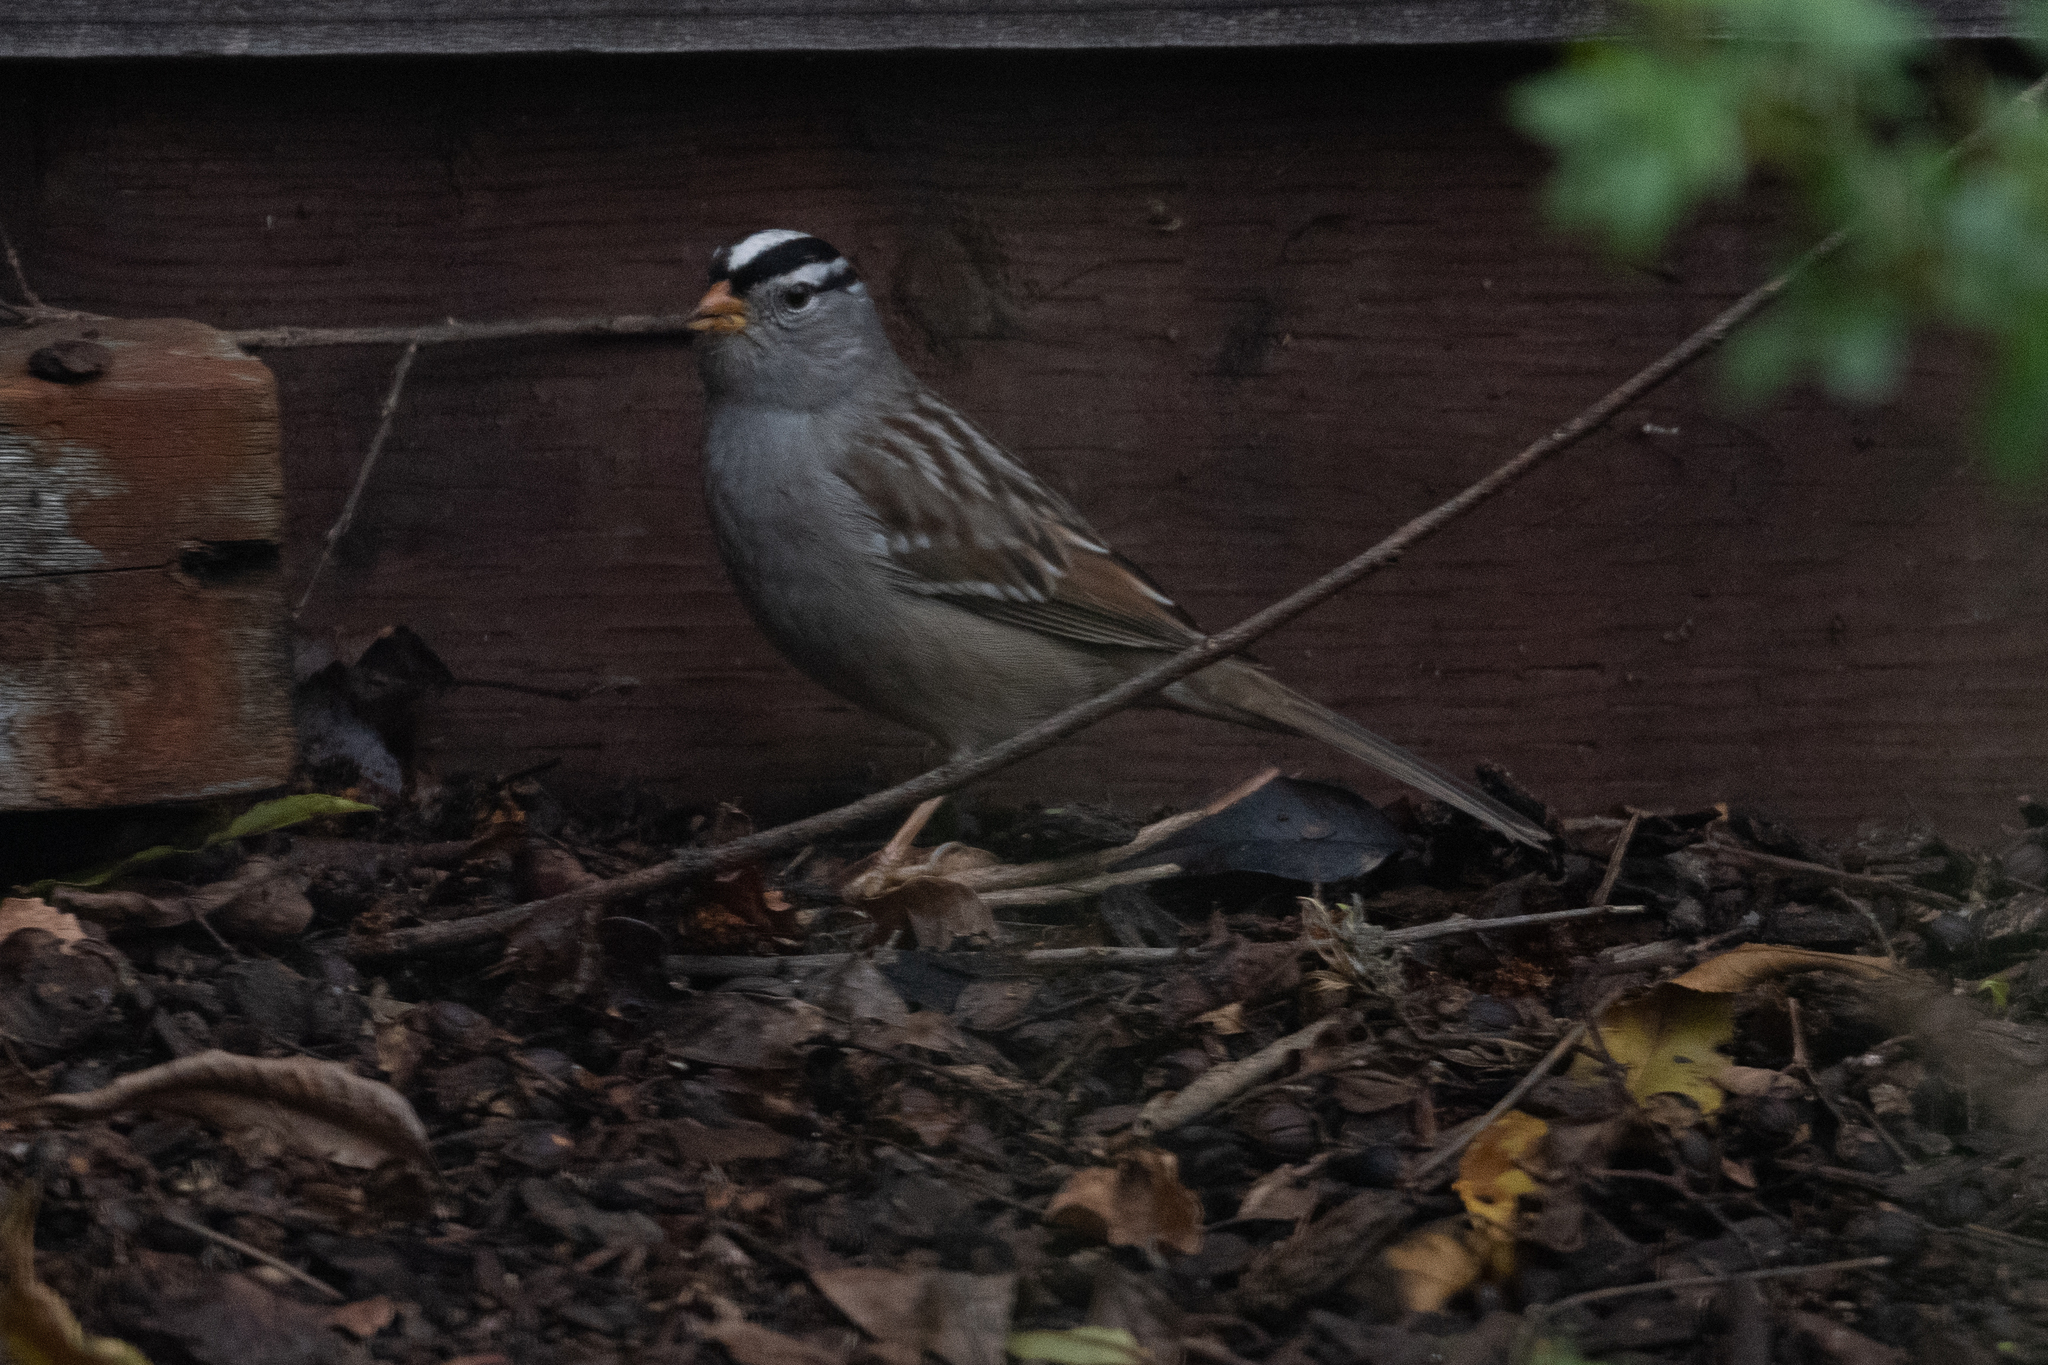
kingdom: Animalia
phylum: Chordata
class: Aves
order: Passeriformes
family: Passerellidae
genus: Zonotrichia
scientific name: Zonotrichia leucophrys
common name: White-crowned sparrow
